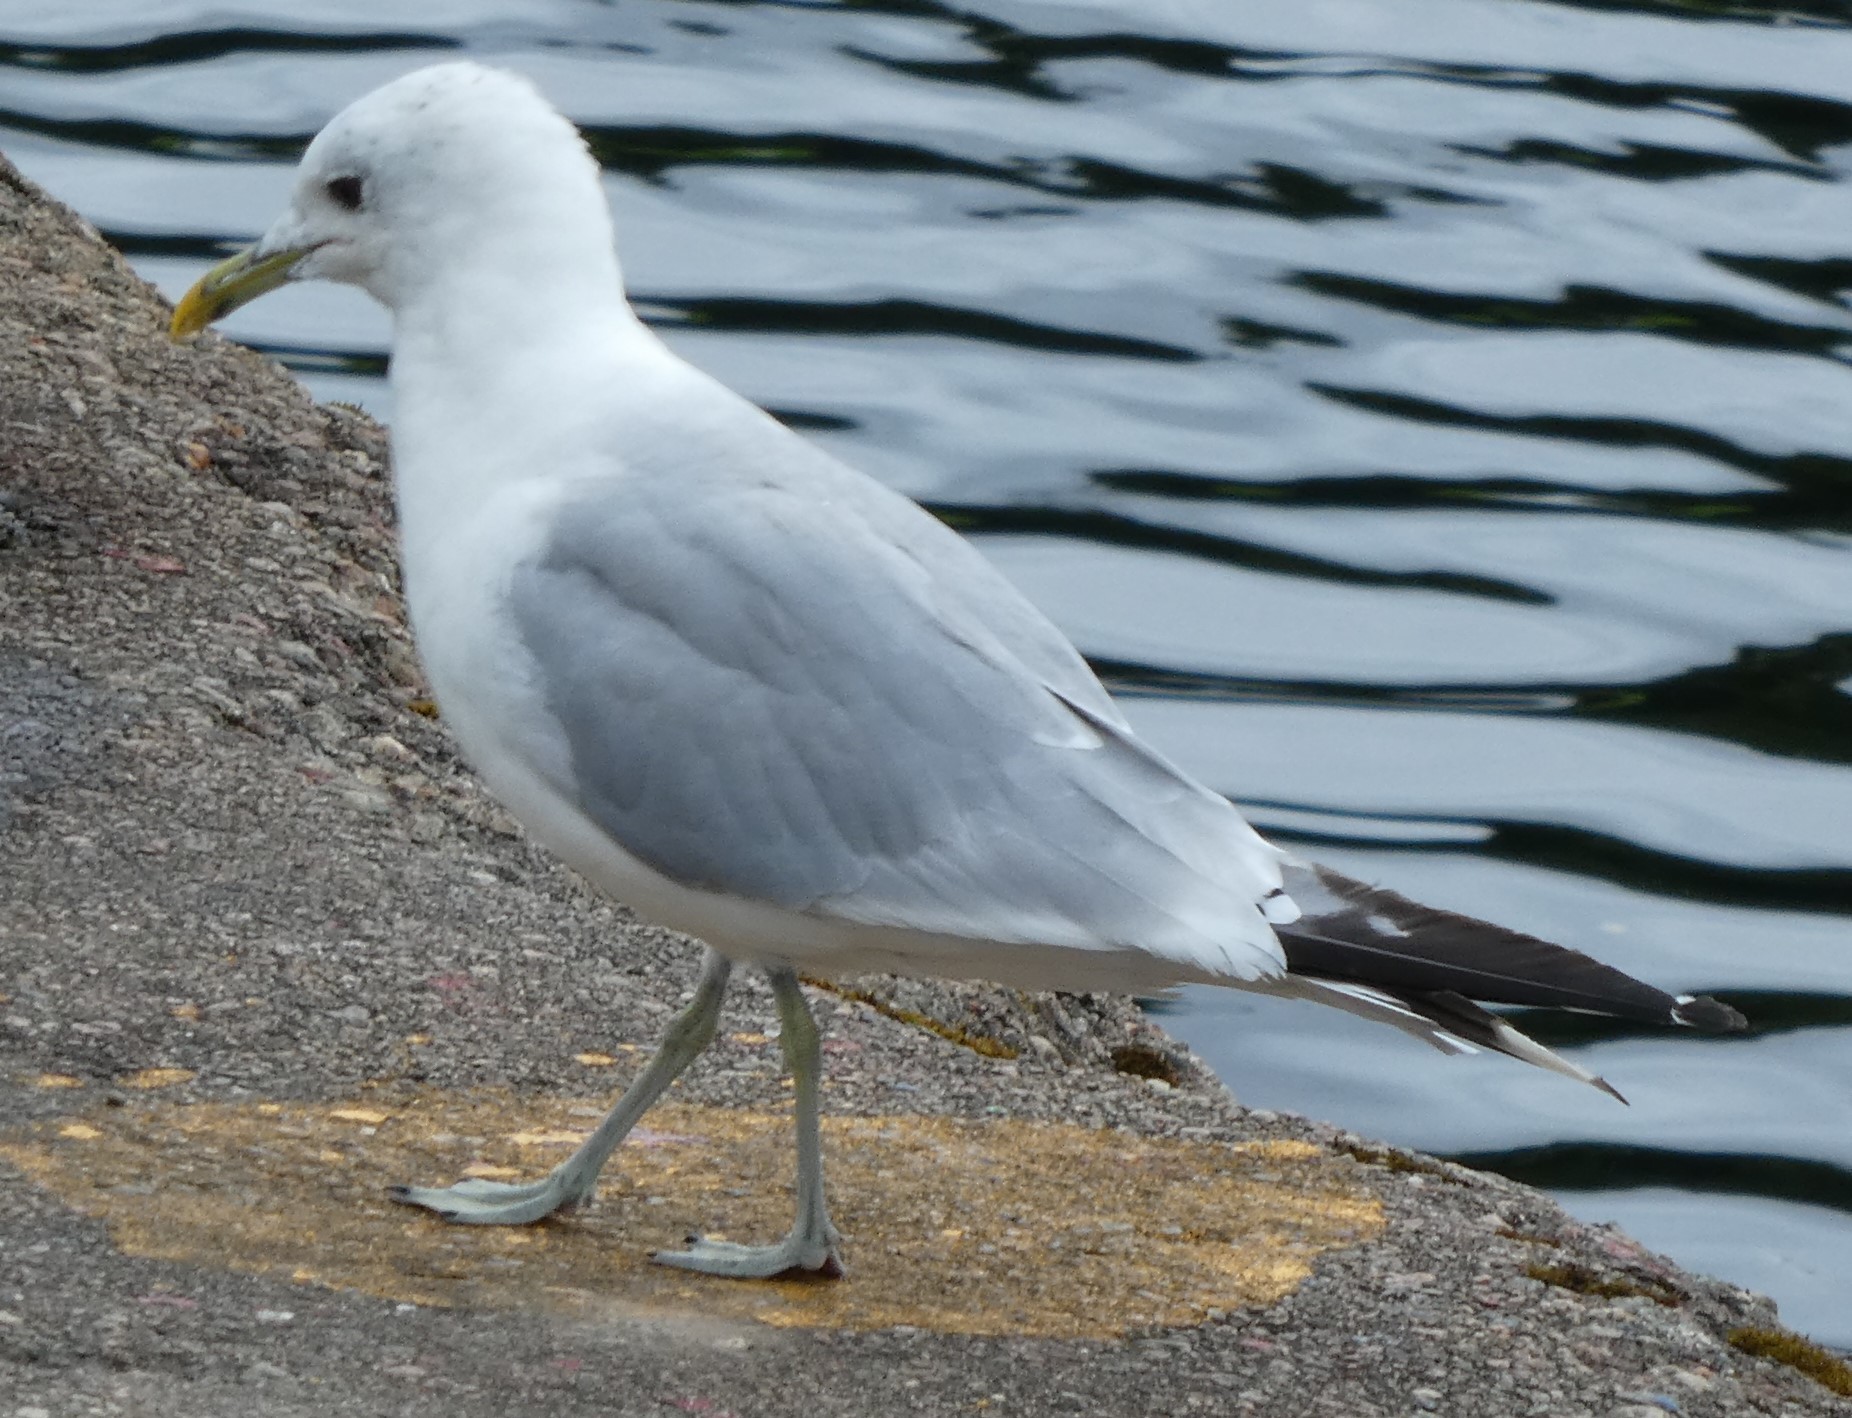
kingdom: Animalia
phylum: Chordata
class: Aves
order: Charadriiformes
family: Laridae
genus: Larus
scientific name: Larus canus
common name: Mew gull
